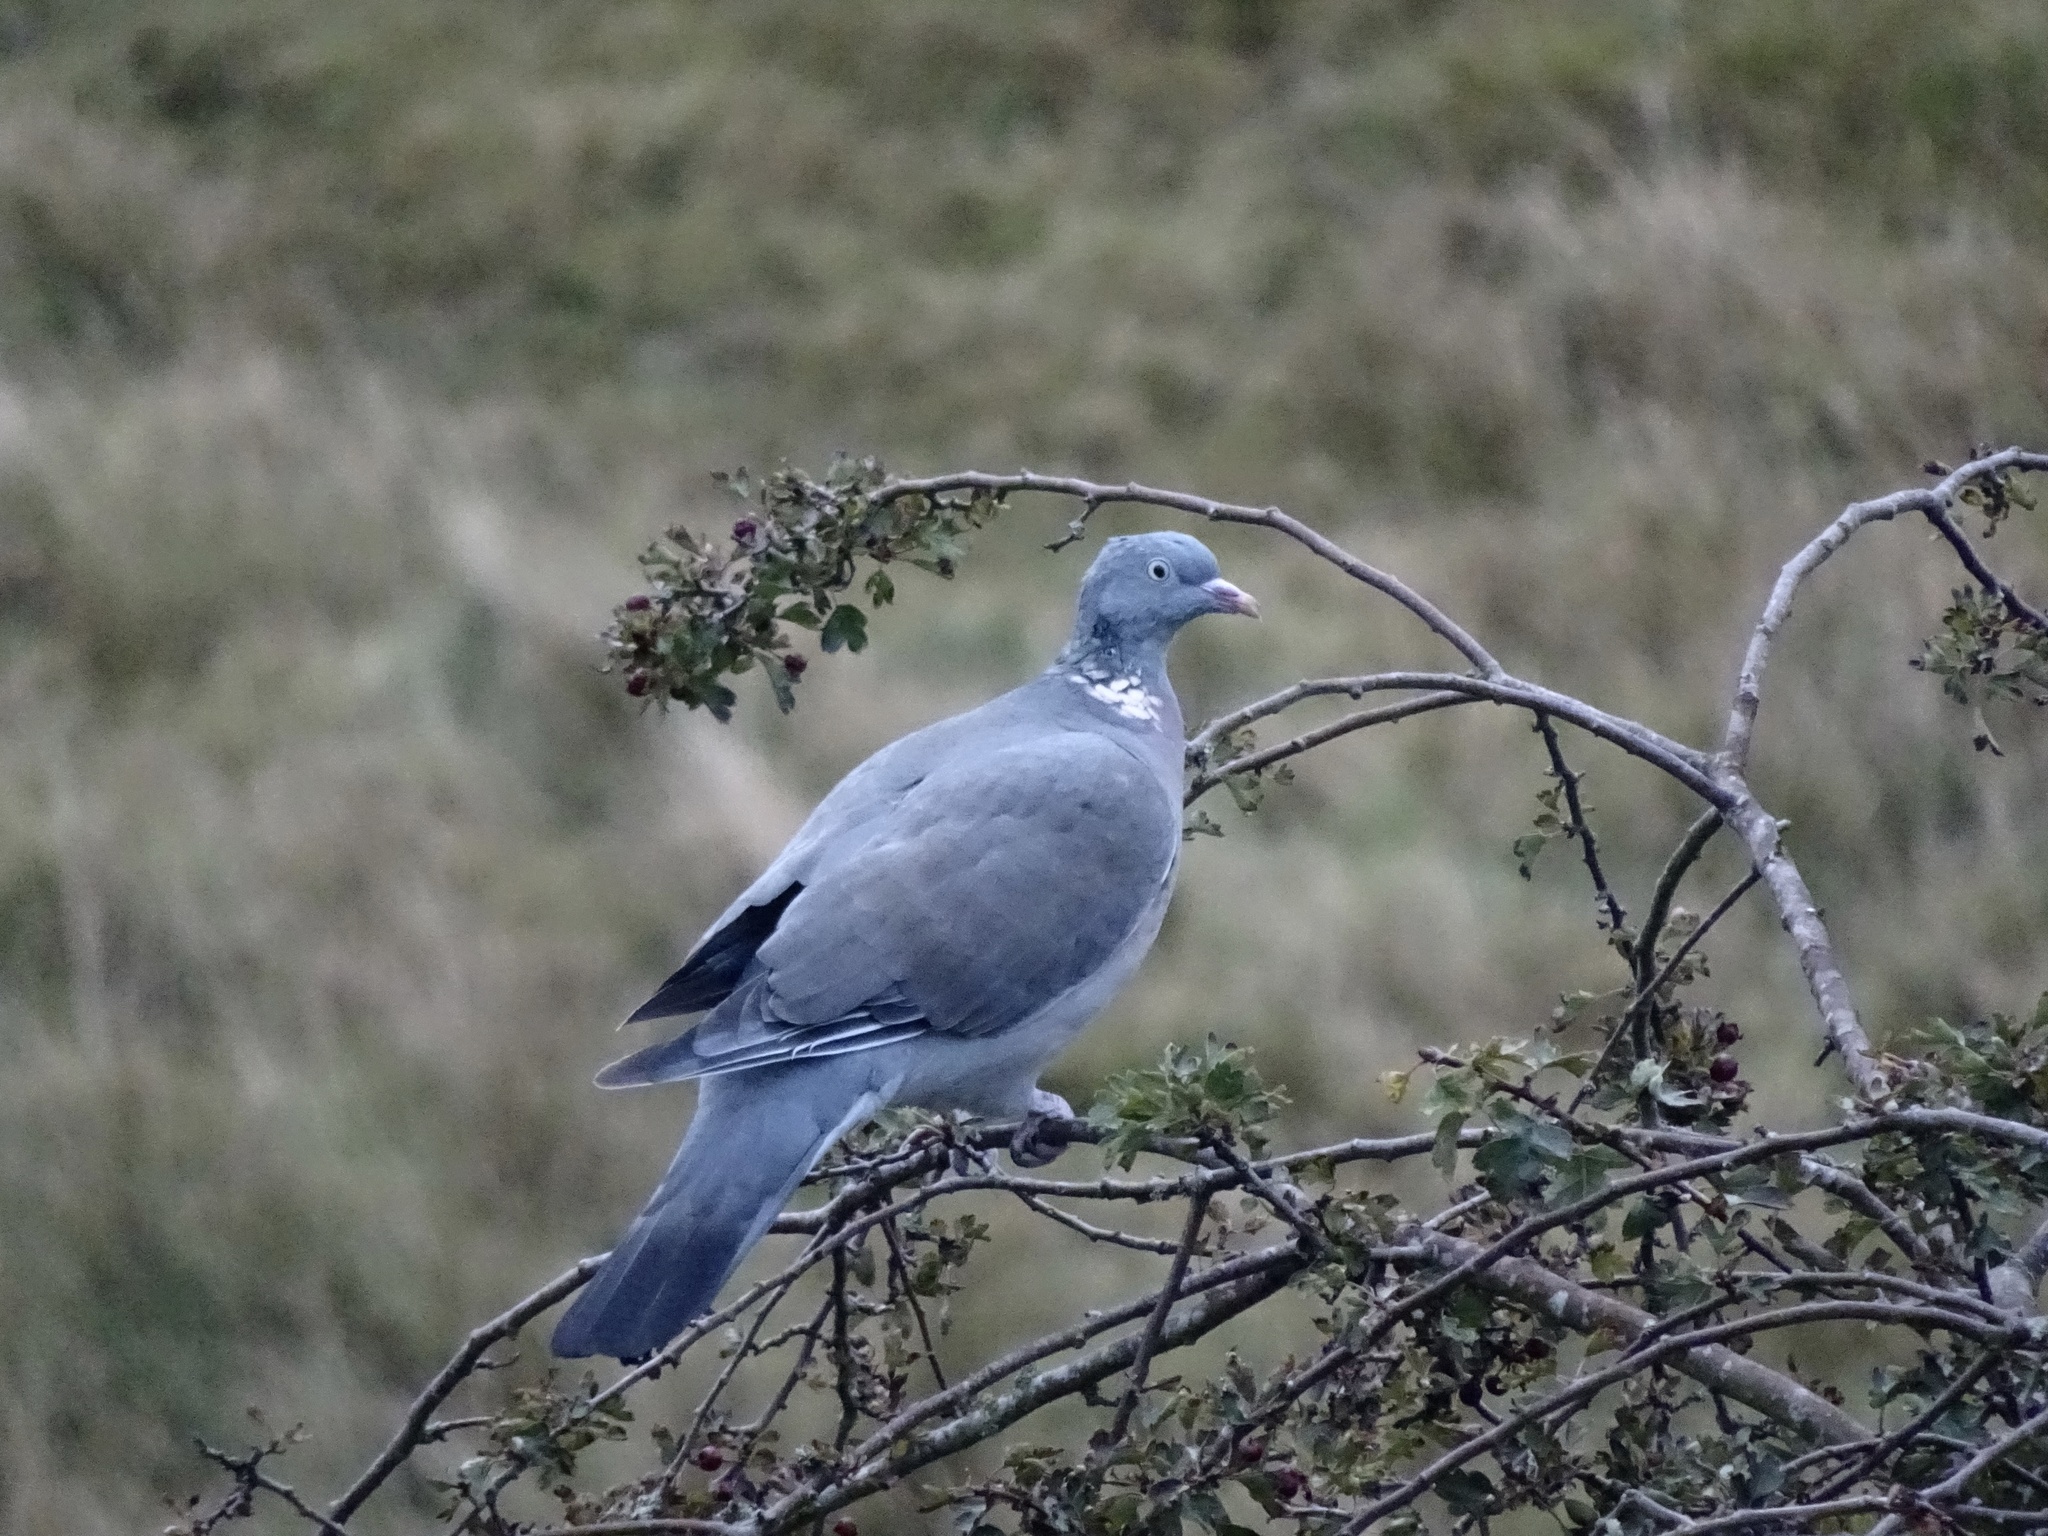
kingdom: Animalia
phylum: Chordata
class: Aves
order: Columbiformes
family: Columbidae
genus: Columba
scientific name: Columba palumbus
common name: Common wood pigeon
